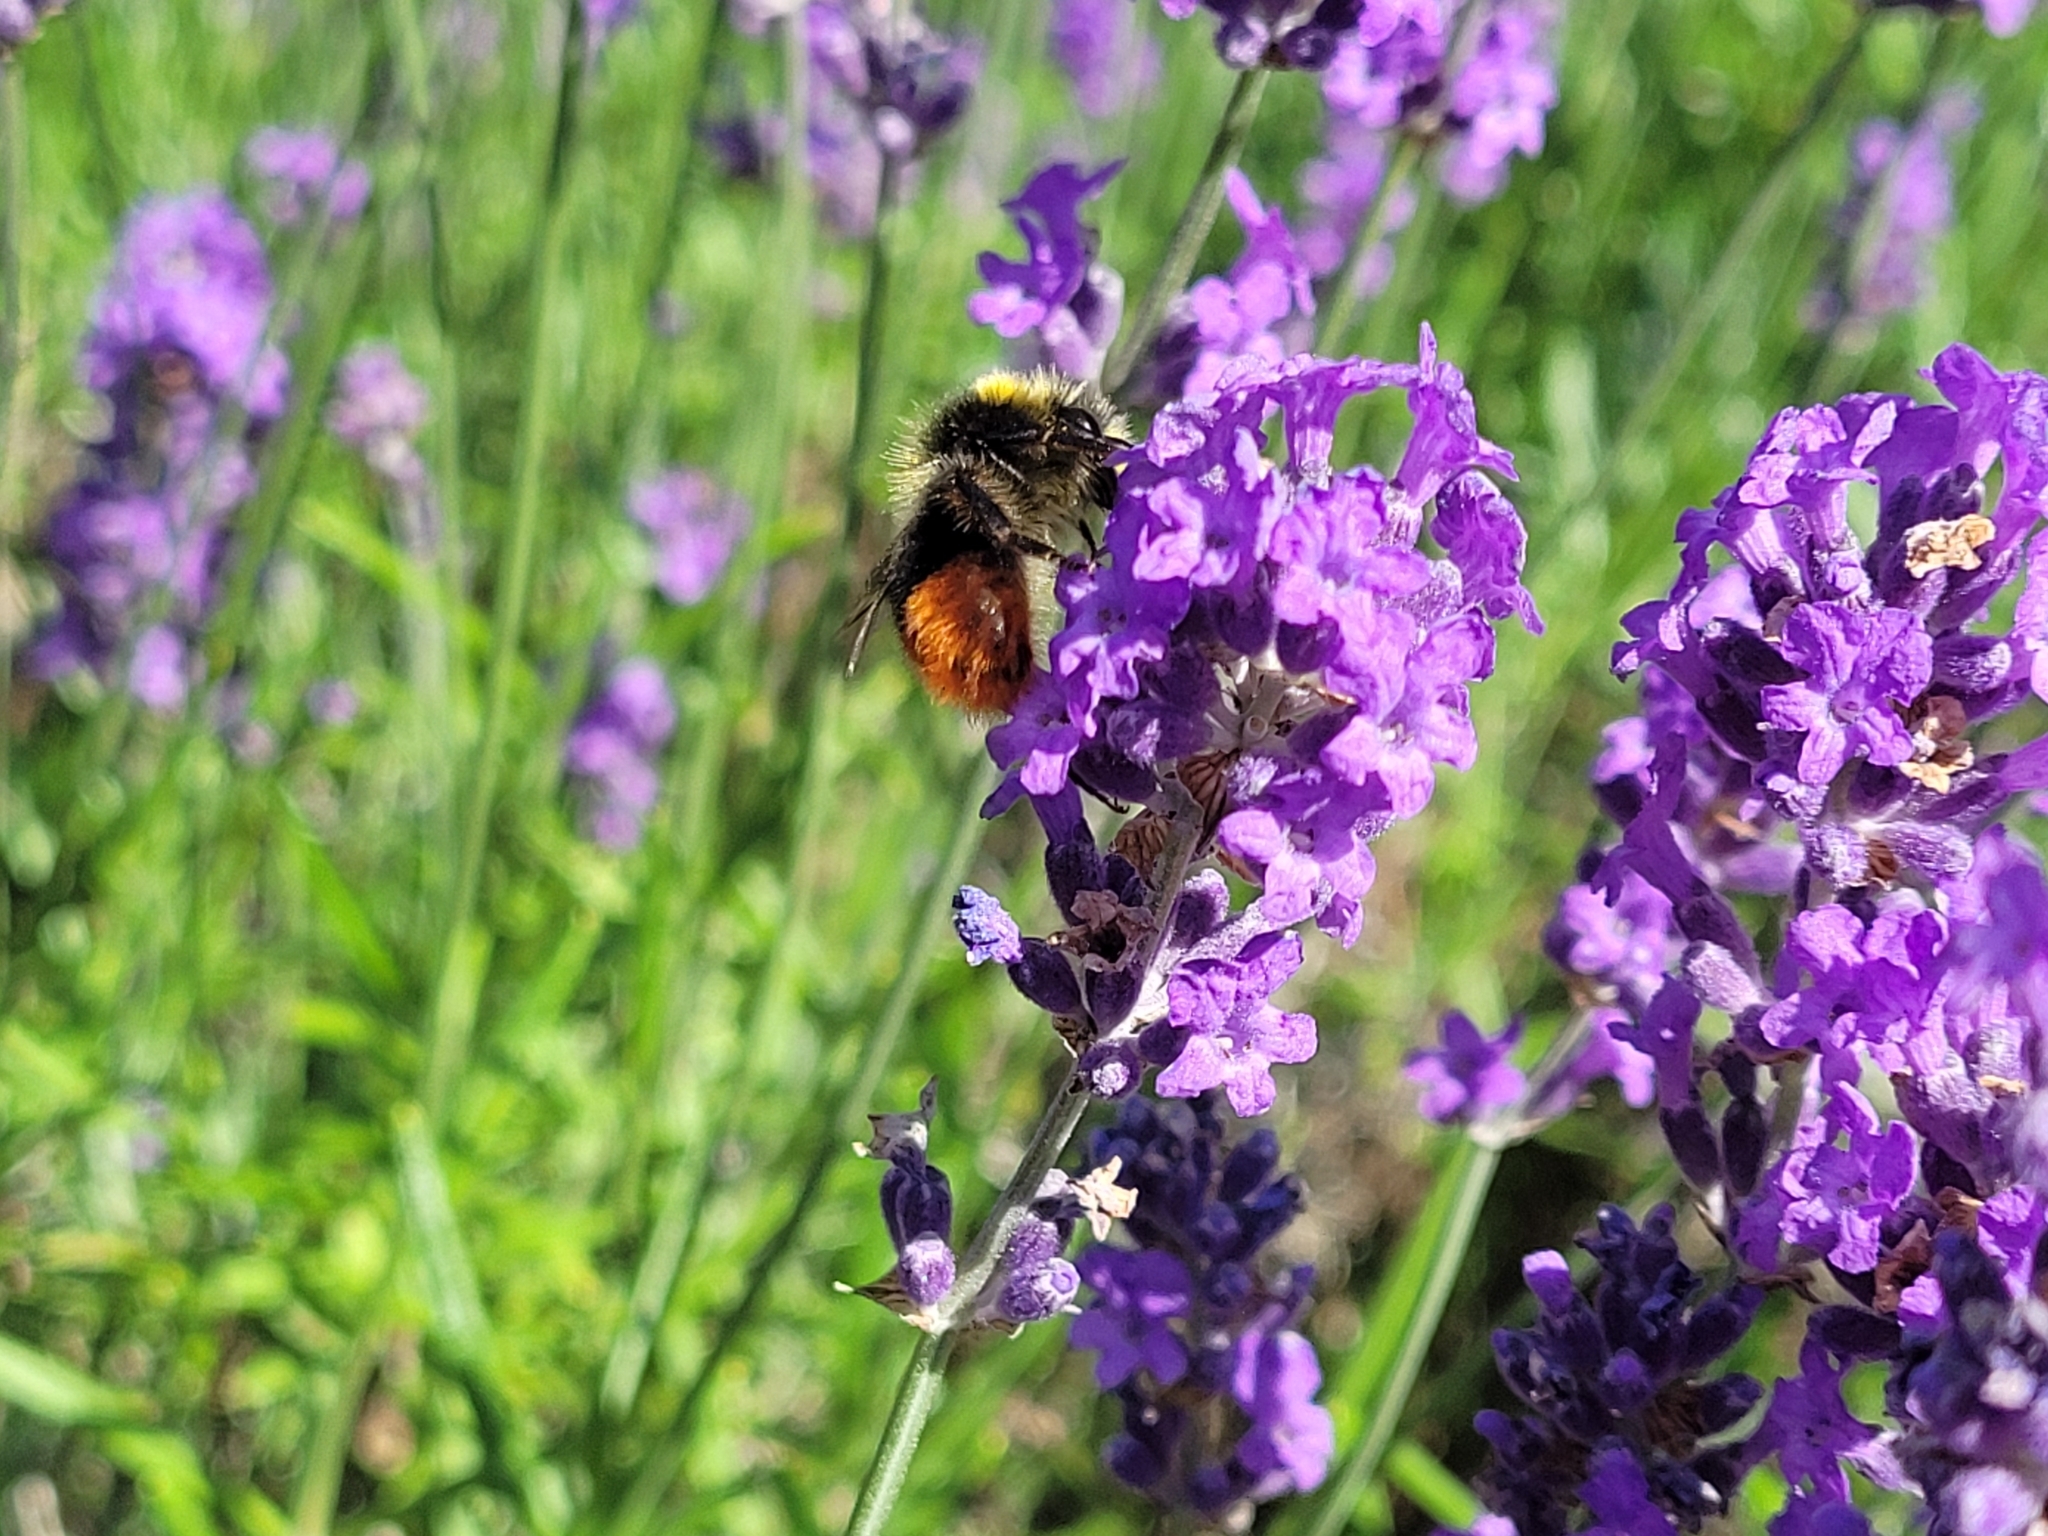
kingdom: Animalia
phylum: Arthropoda
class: Insecta
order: Hymenoptera
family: Apidae
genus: Bombus
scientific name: Bombus lapidarius
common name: Large red-tailed humble-bee
